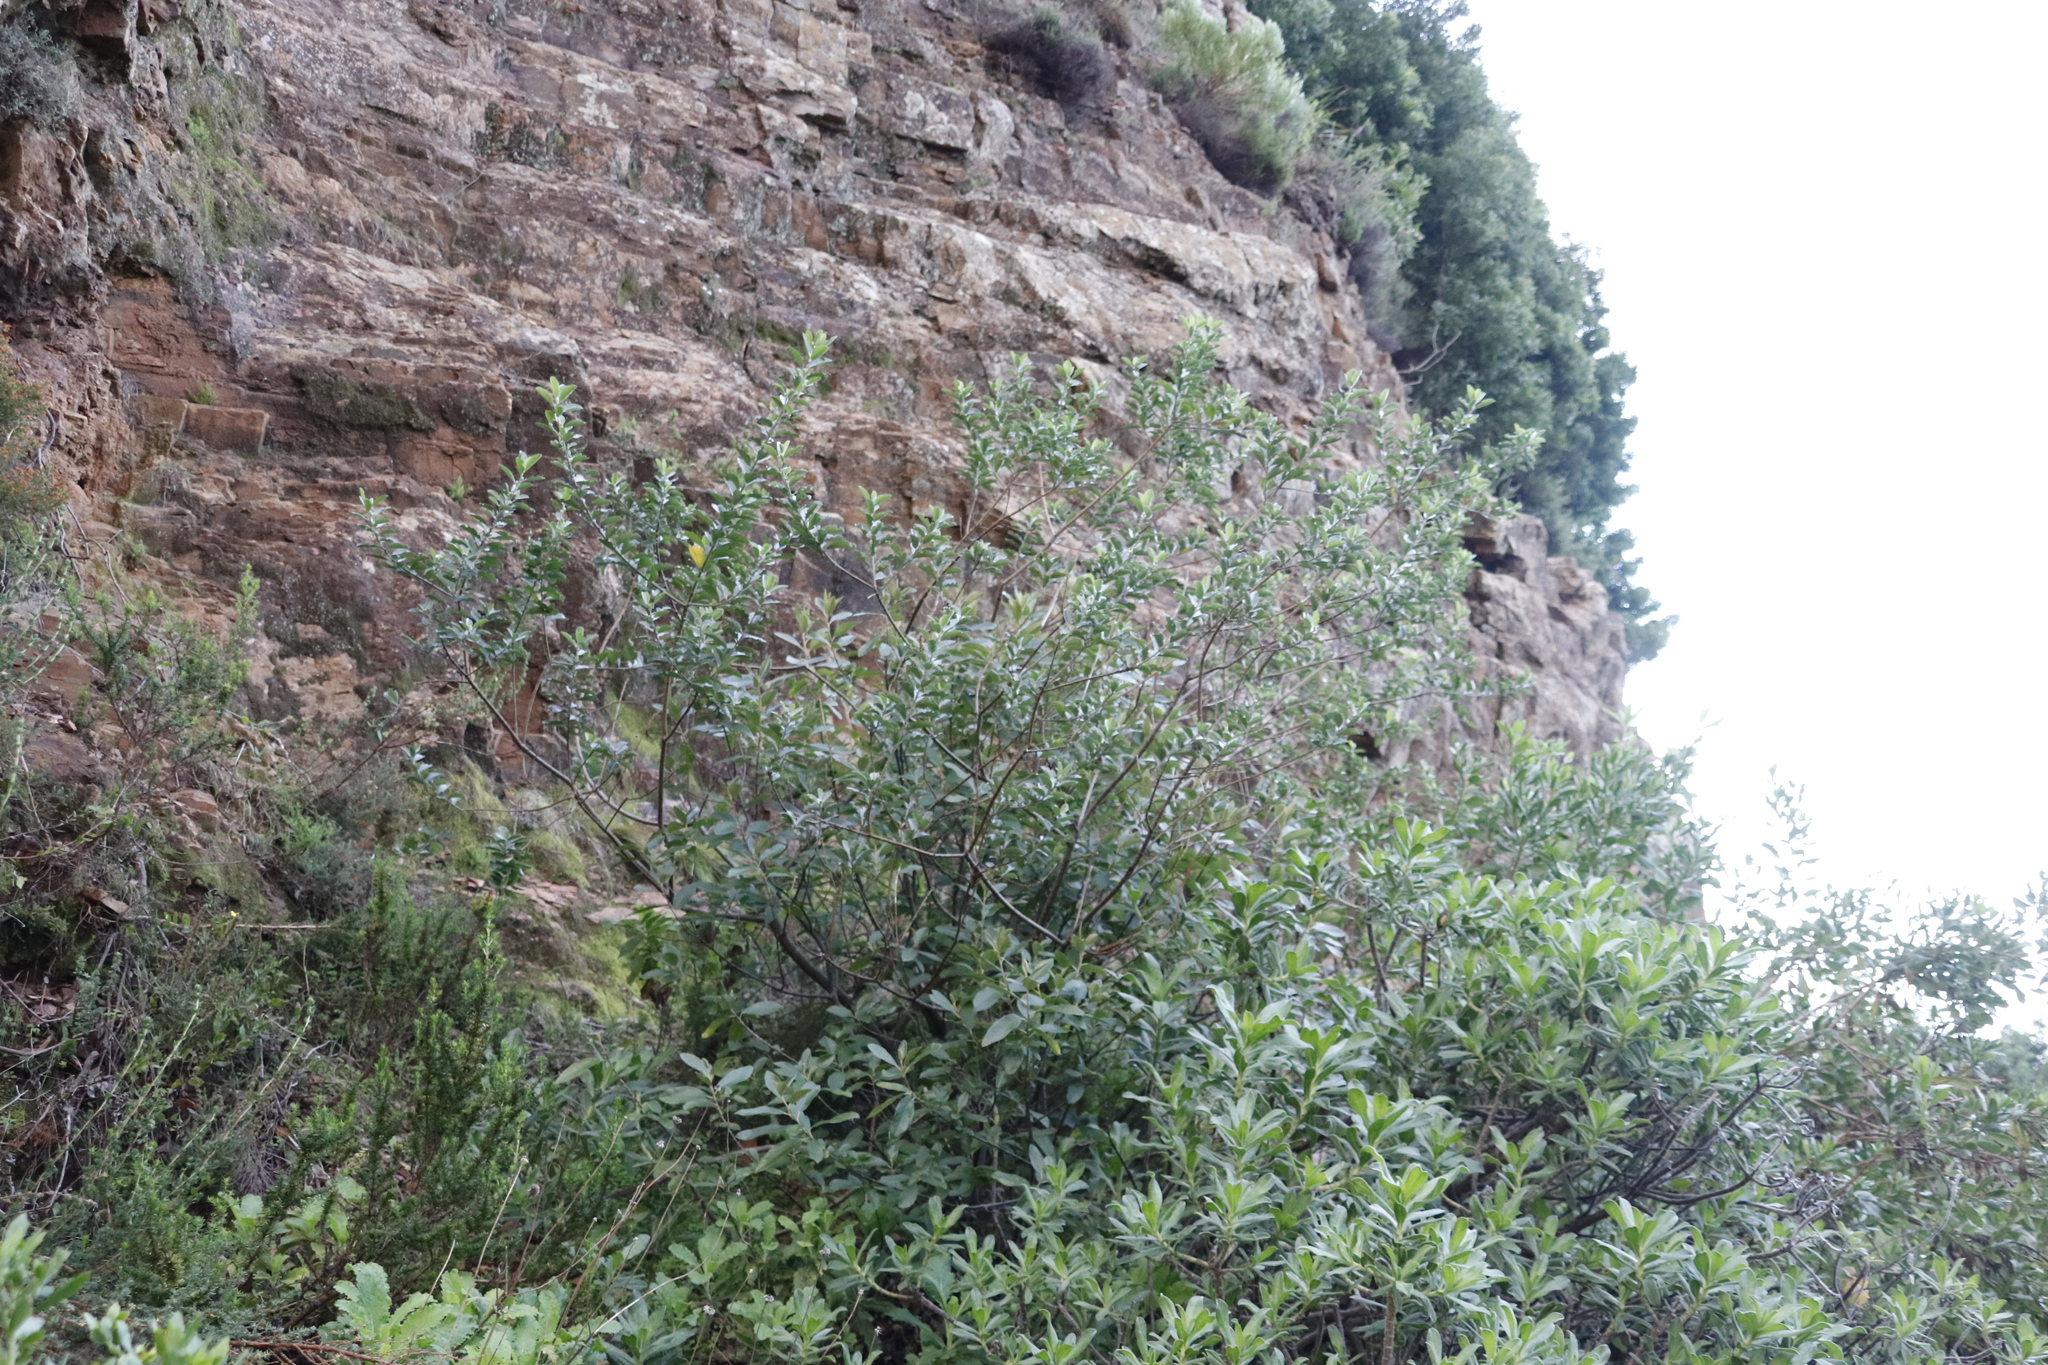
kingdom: Plantae
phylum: Tracheophyta
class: Magnoliopsida
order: Fabales
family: Fabaceae
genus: Podalyria
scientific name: Podalyria calyptrata
